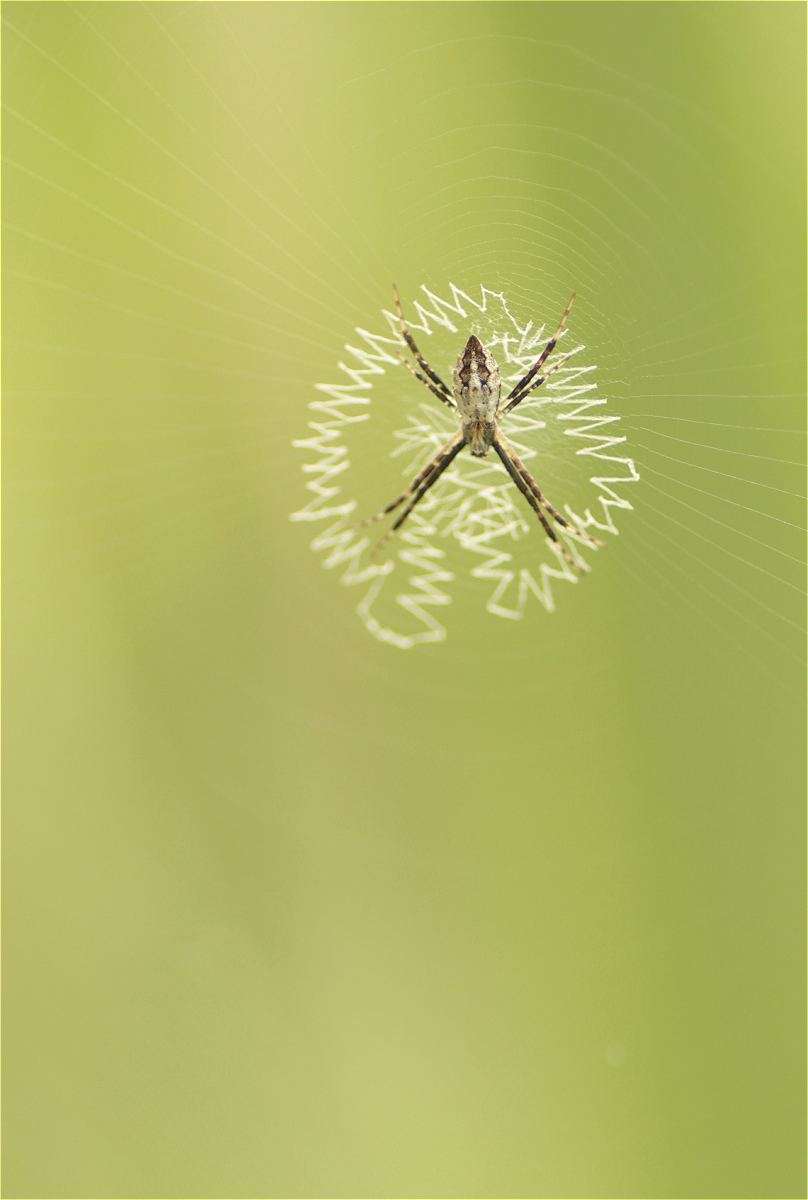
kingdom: Animalia
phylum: Arthropoda
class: Arachnida
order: Araneae
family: Araneidae
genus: Argiope
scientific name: Argiope argentata
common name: Orb weavers
